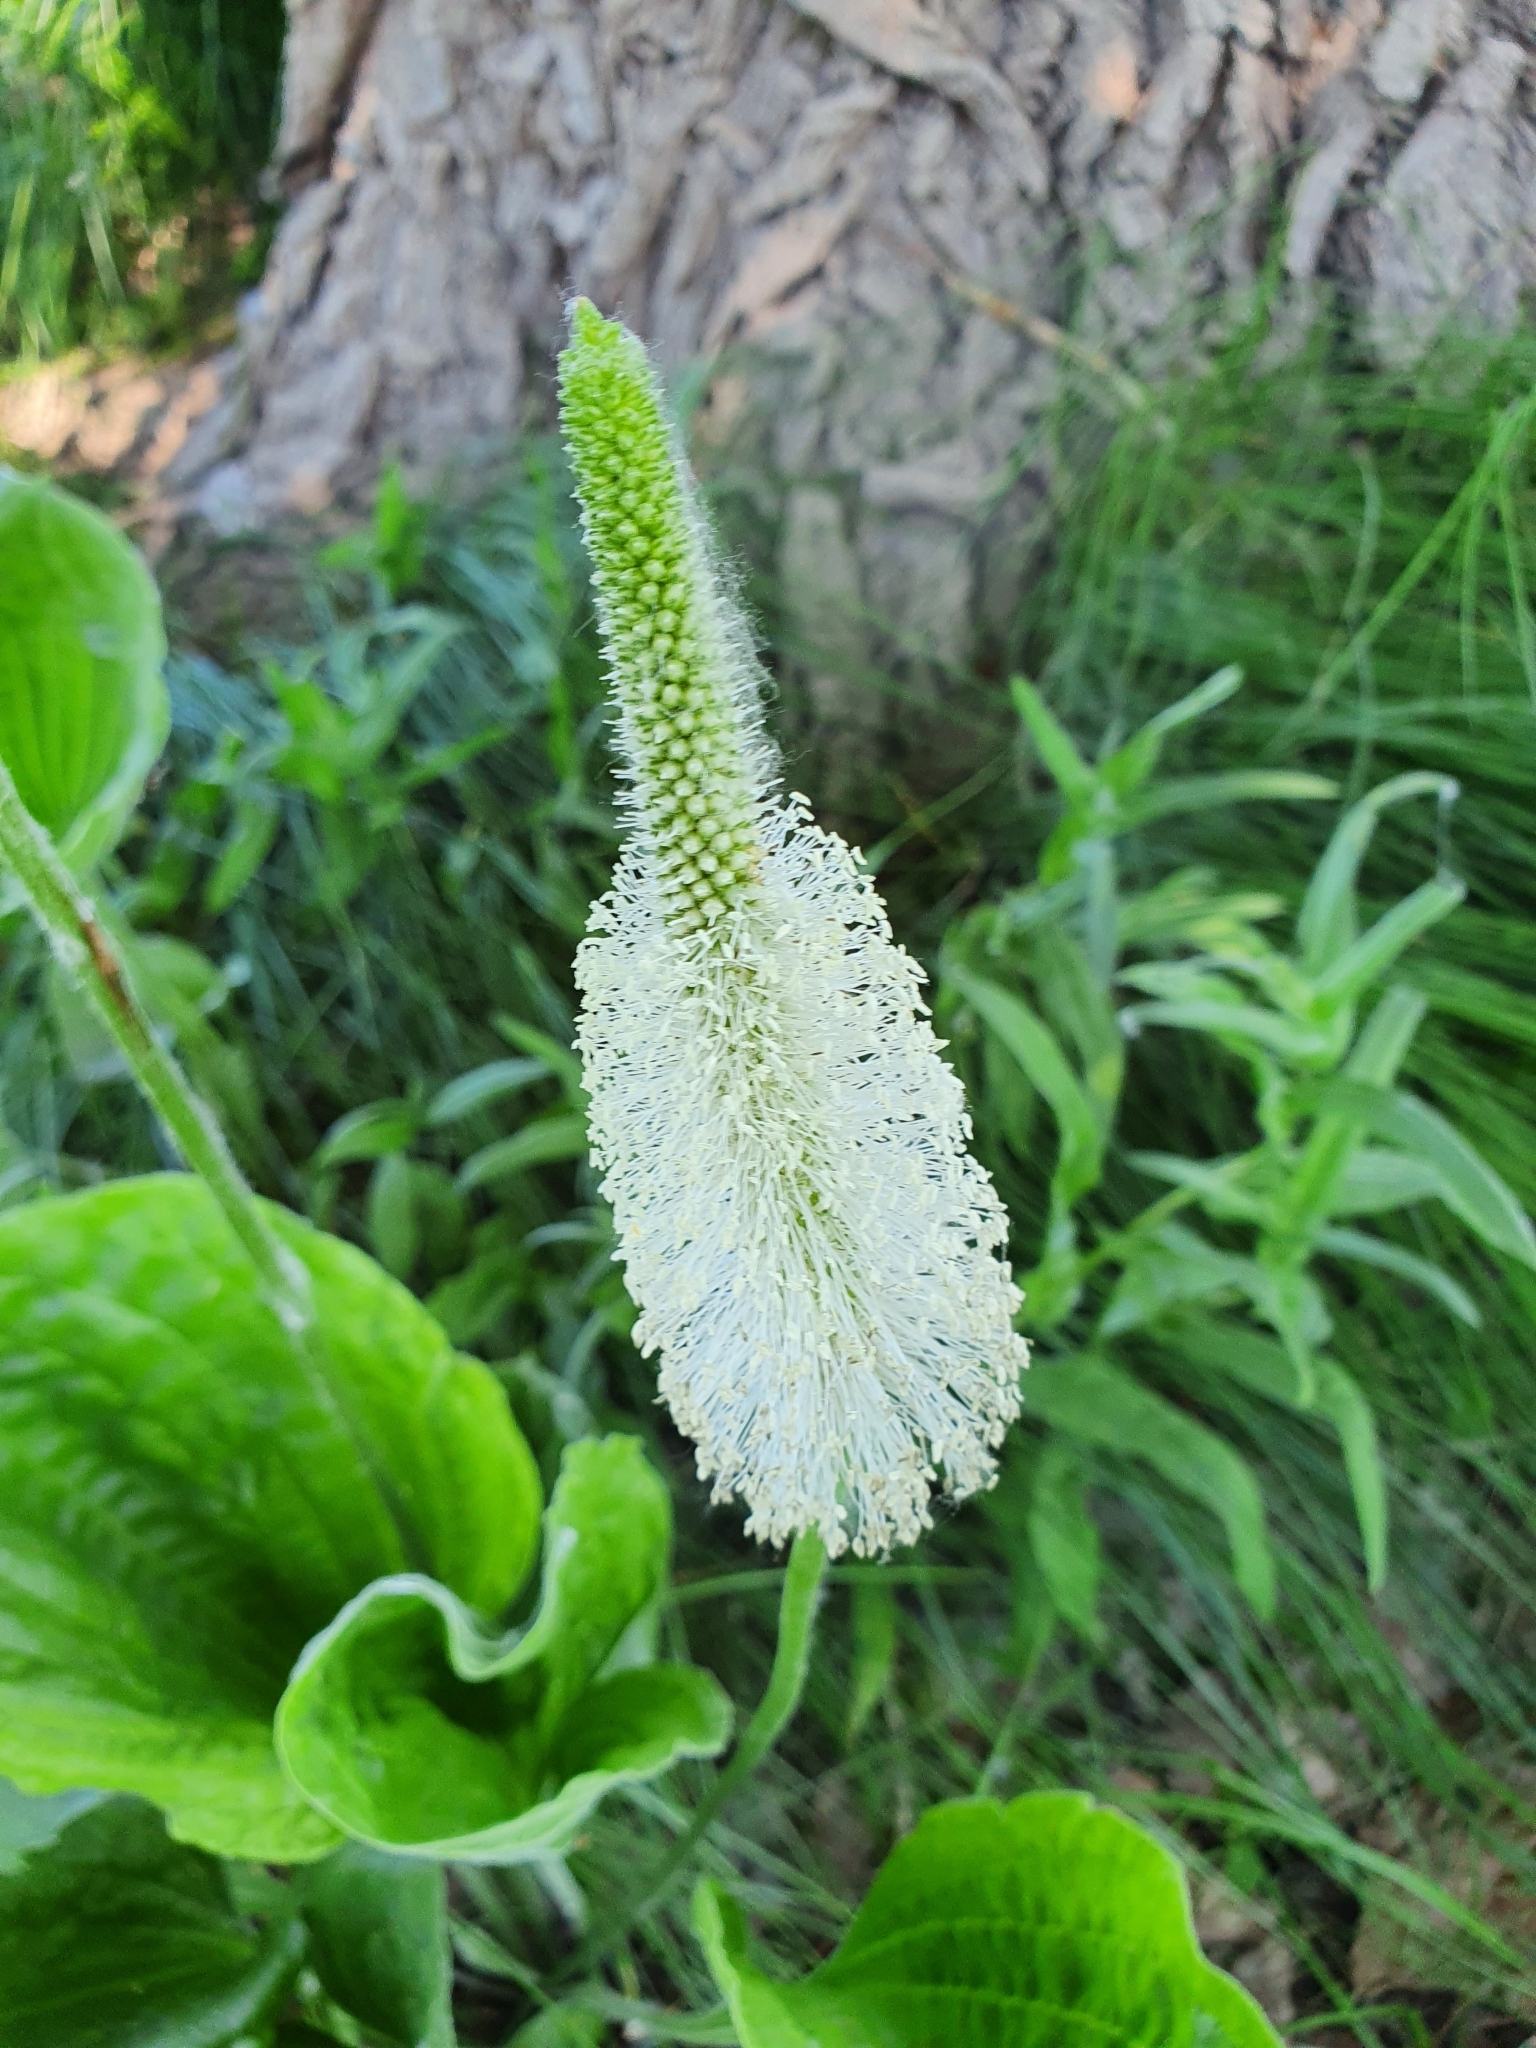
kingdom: Plantae
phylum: Tracheophyta
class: Magnoliopsida
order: Lamiales
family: Plantaginaceae
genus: Plantago
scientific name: Plantago maxima
